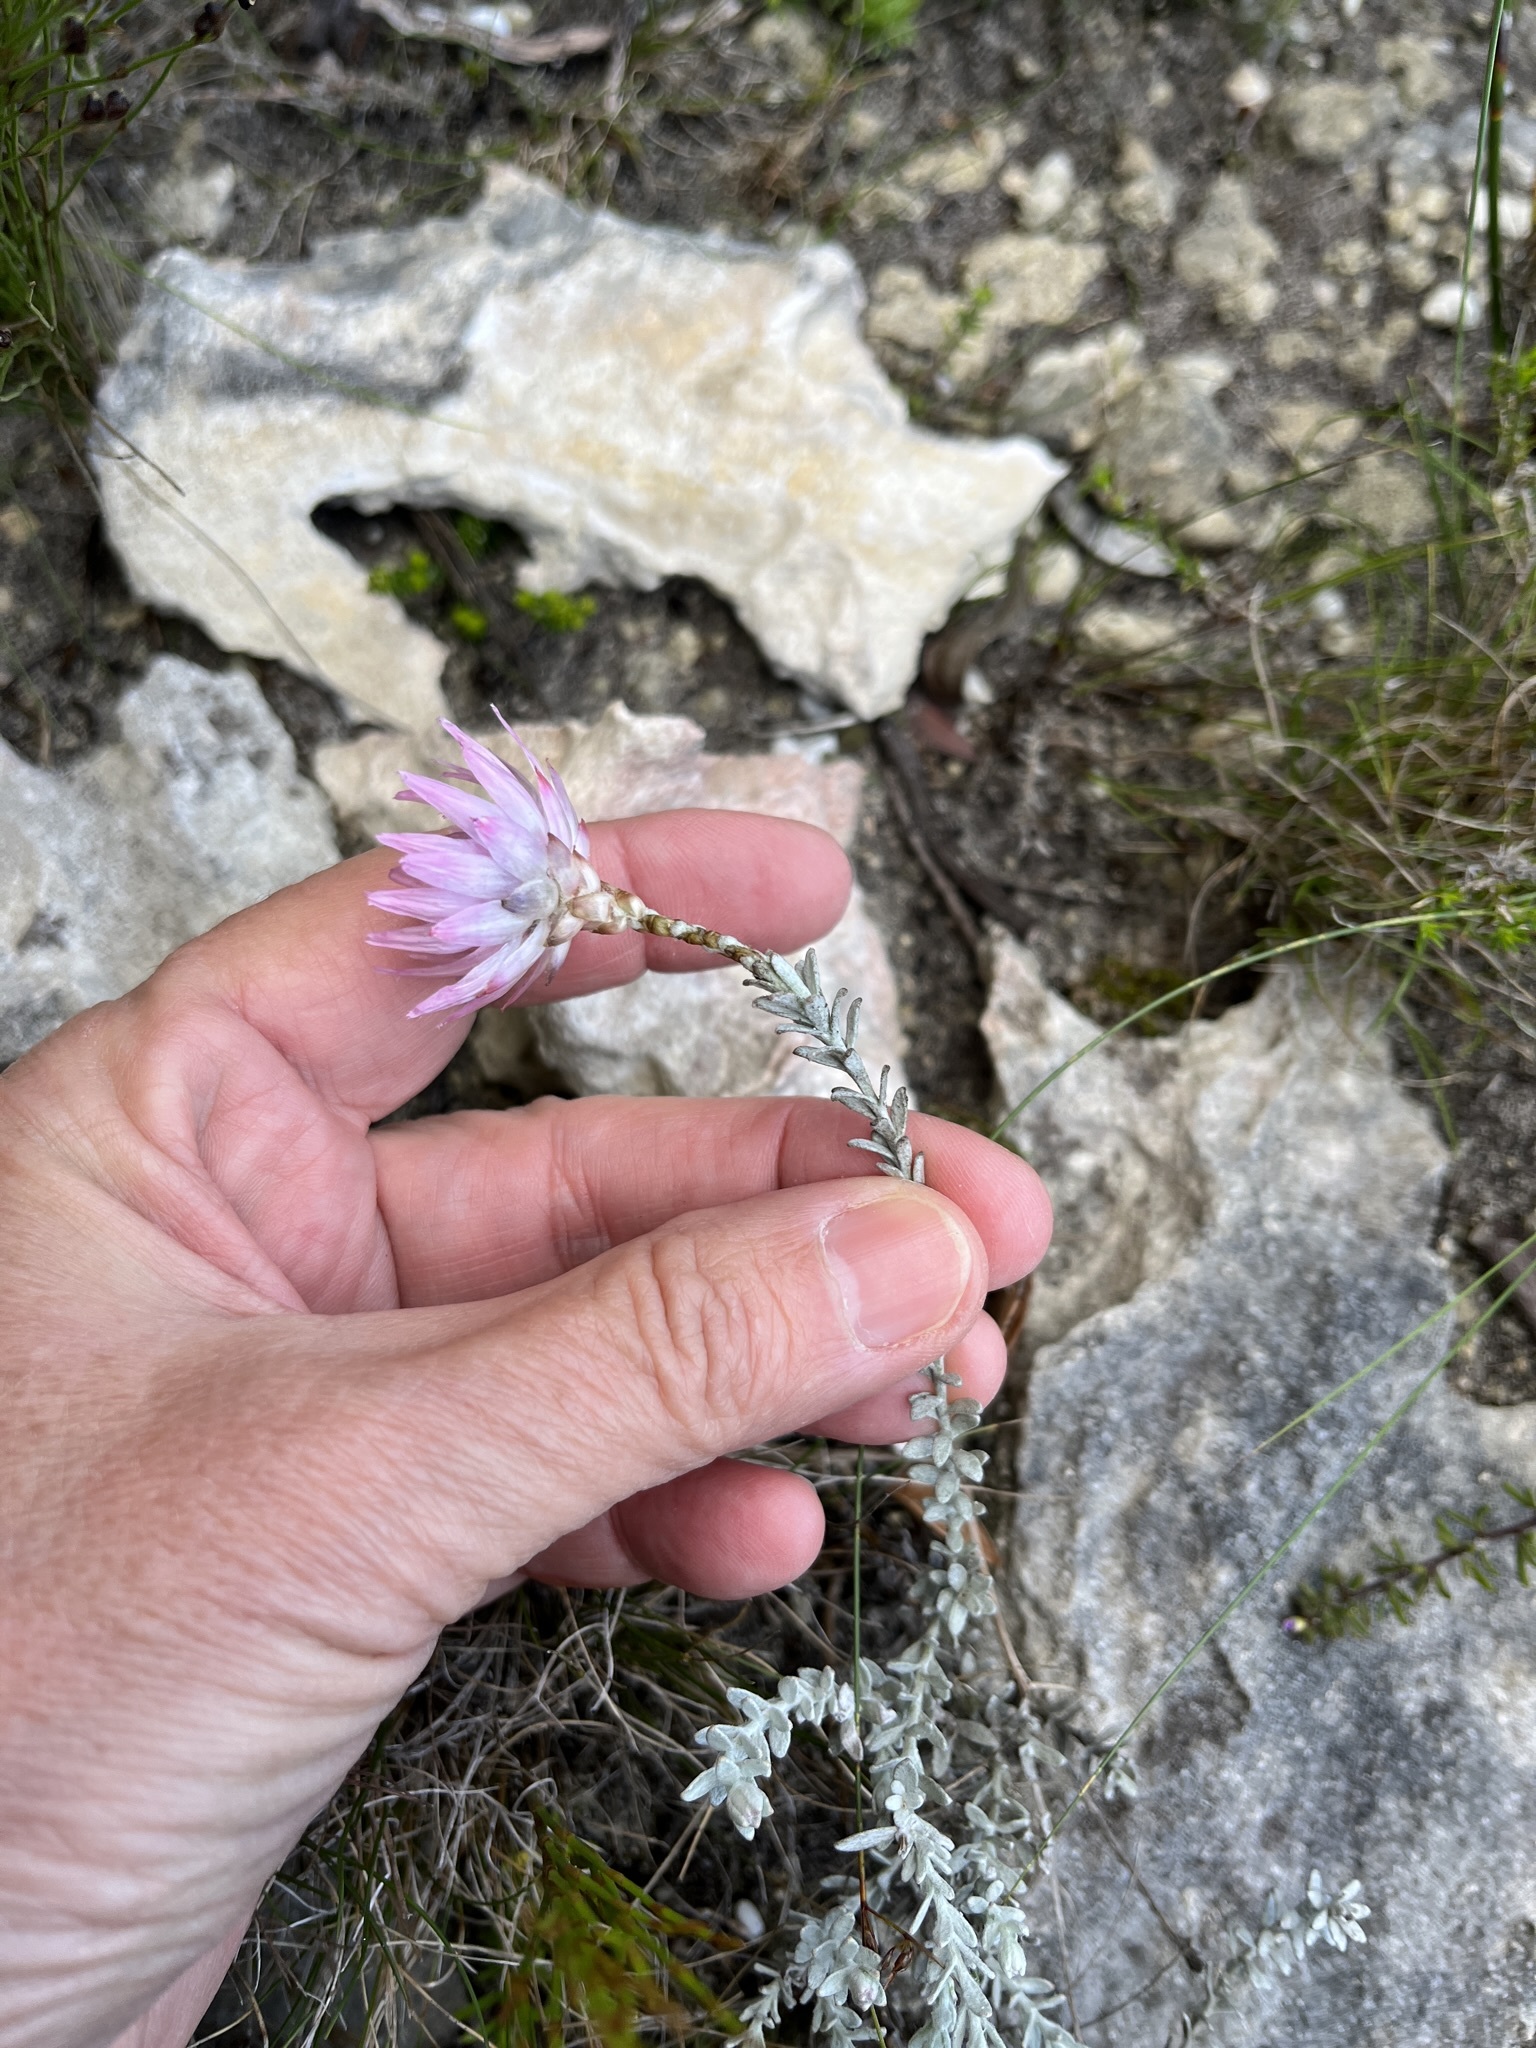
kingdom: Plantae
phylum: Tracheophyta
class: Magnoliopsida
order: Asterales
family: Asteraceae
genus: Syncarpha
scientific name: Syncarpha canescens
